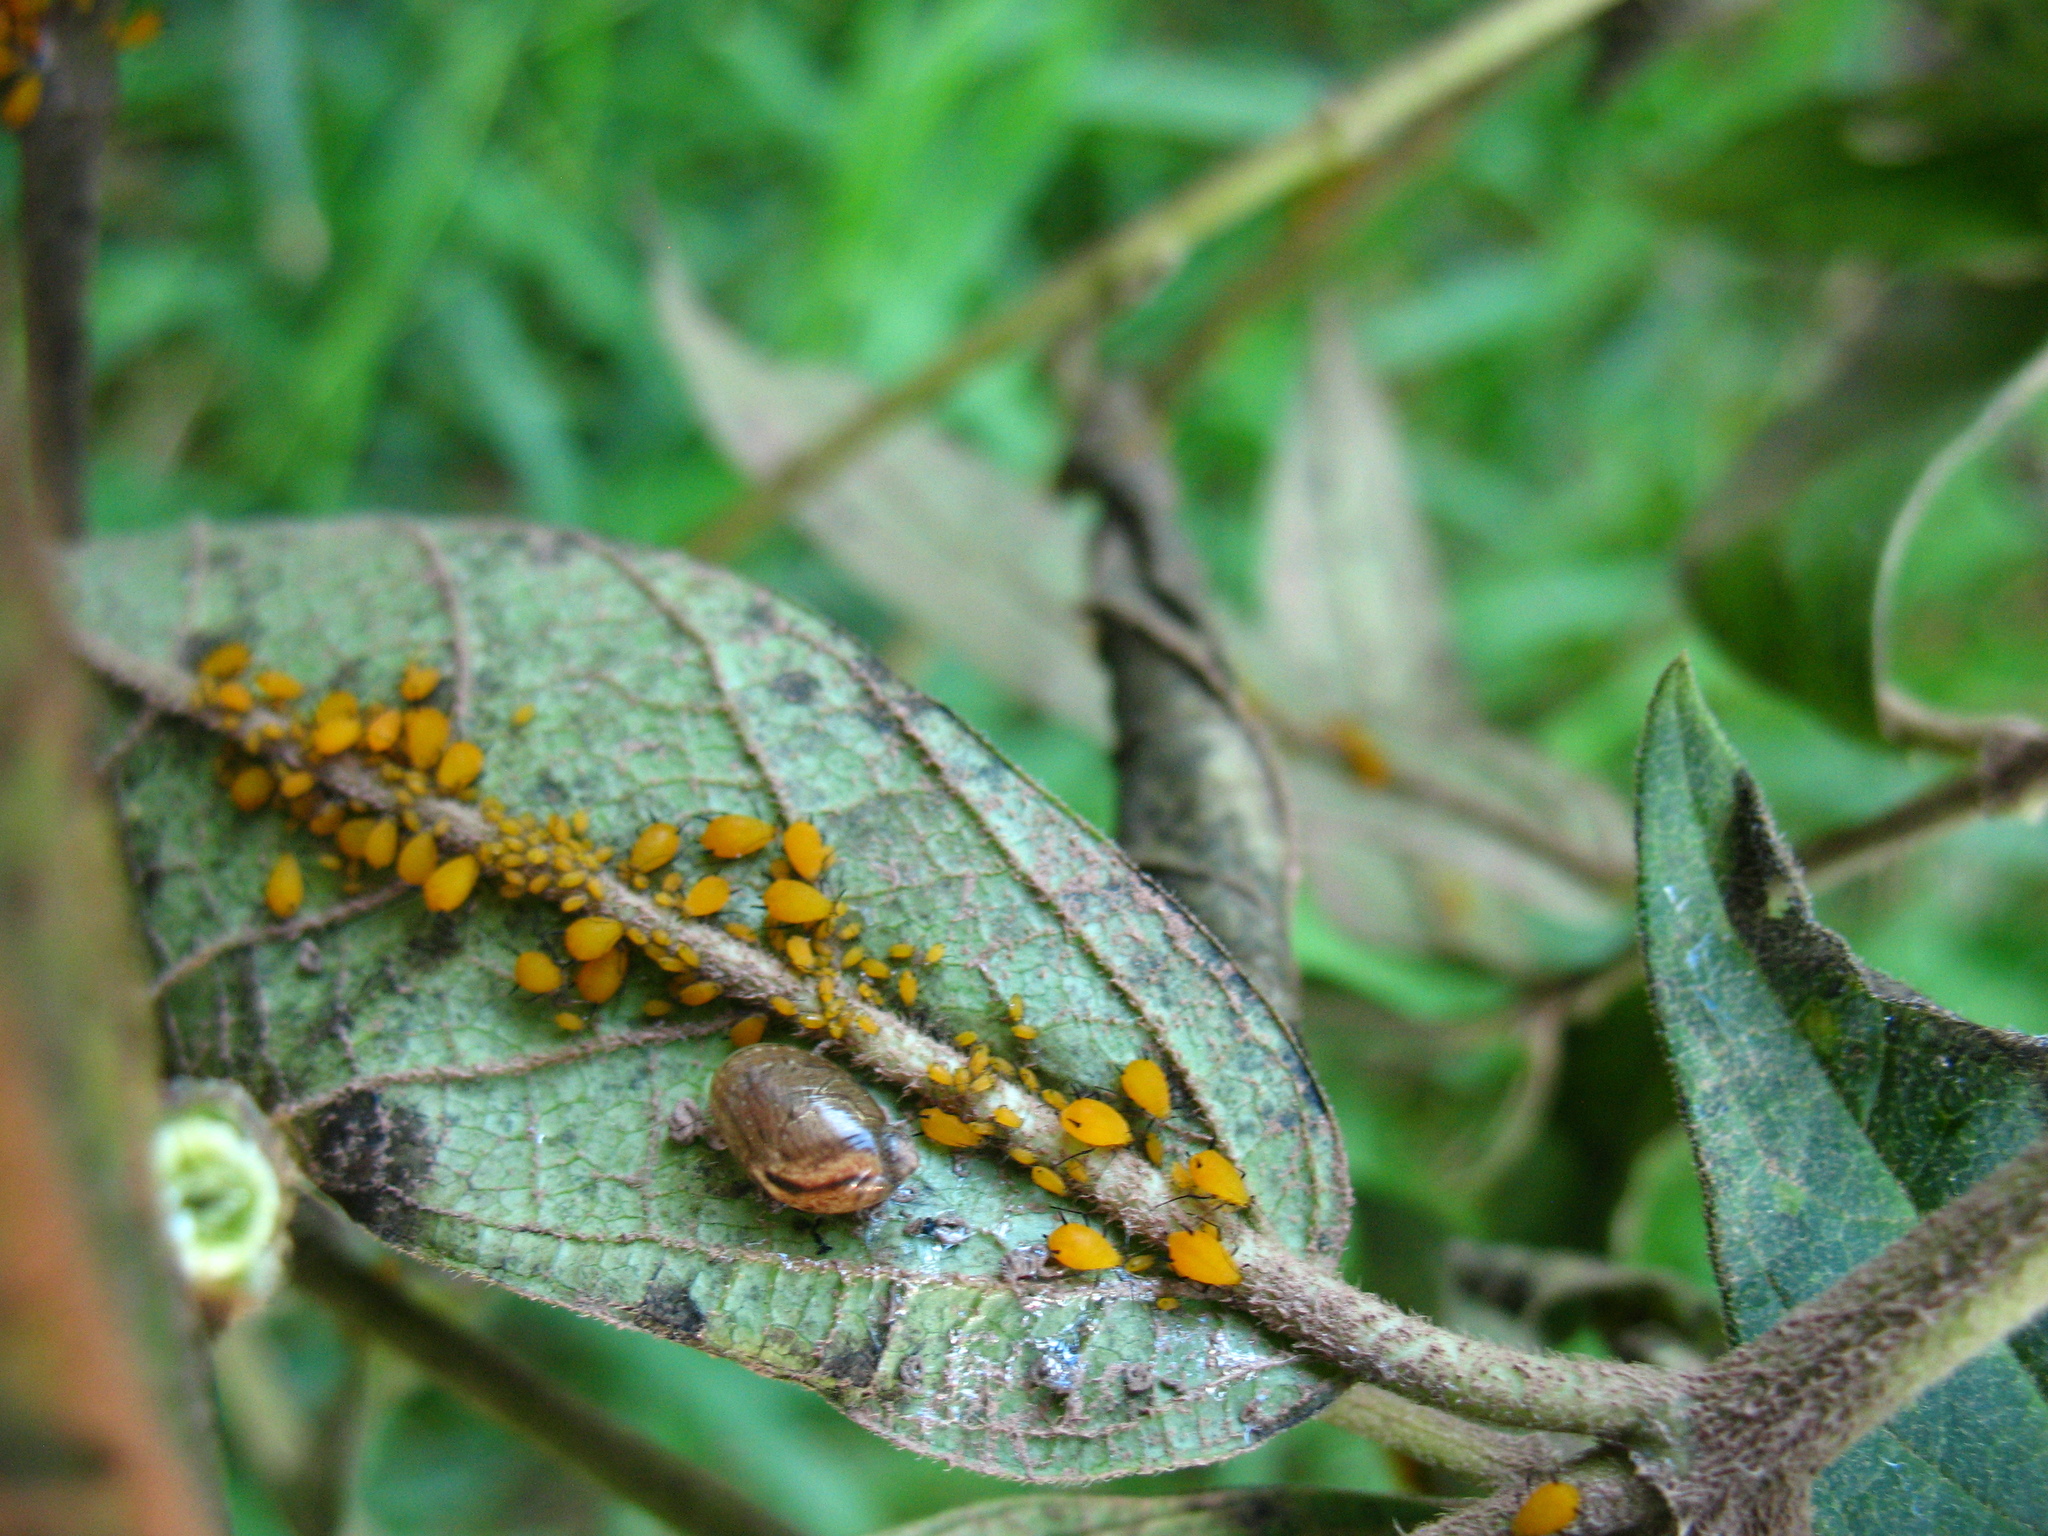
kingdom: Animalia
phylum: Arthropoda
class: Insecta
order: Hemiptera
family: Aphididae
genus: Aphis
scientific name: Aphis nerii
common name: Oleander aphid
